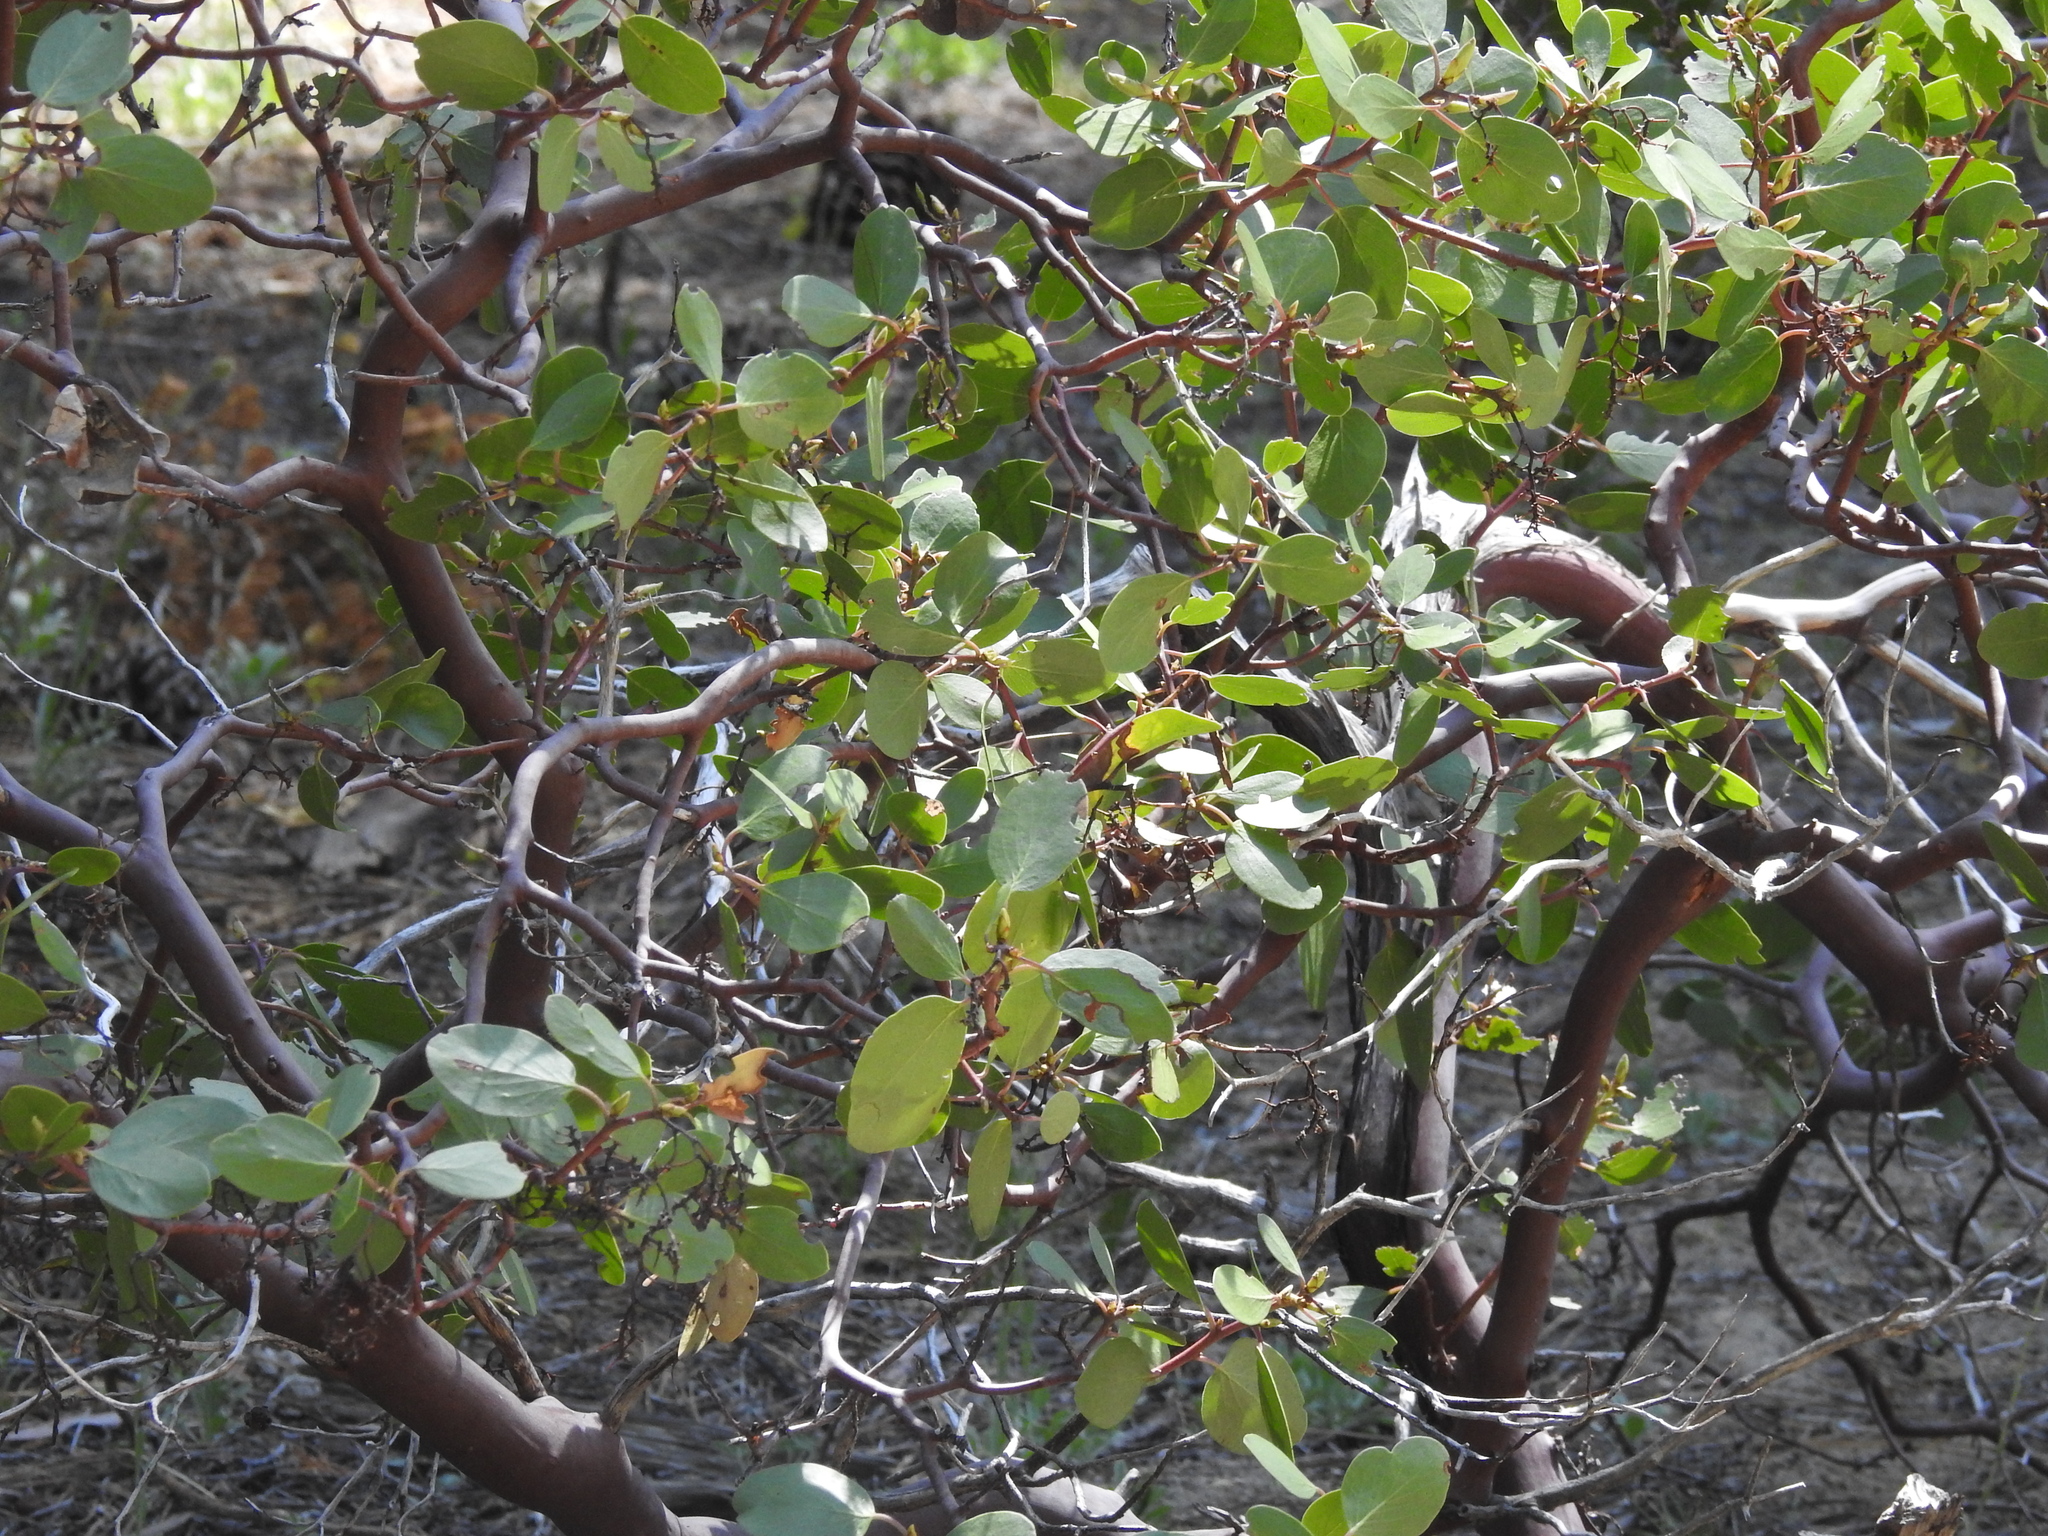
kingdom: Plantae
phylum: Tracheophyta
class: Magnoliopsida
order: Ericales
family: Ericaceae
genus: Arctostaphylos
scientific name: Arctostaphylos patula
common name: Green-leaf manzanita
